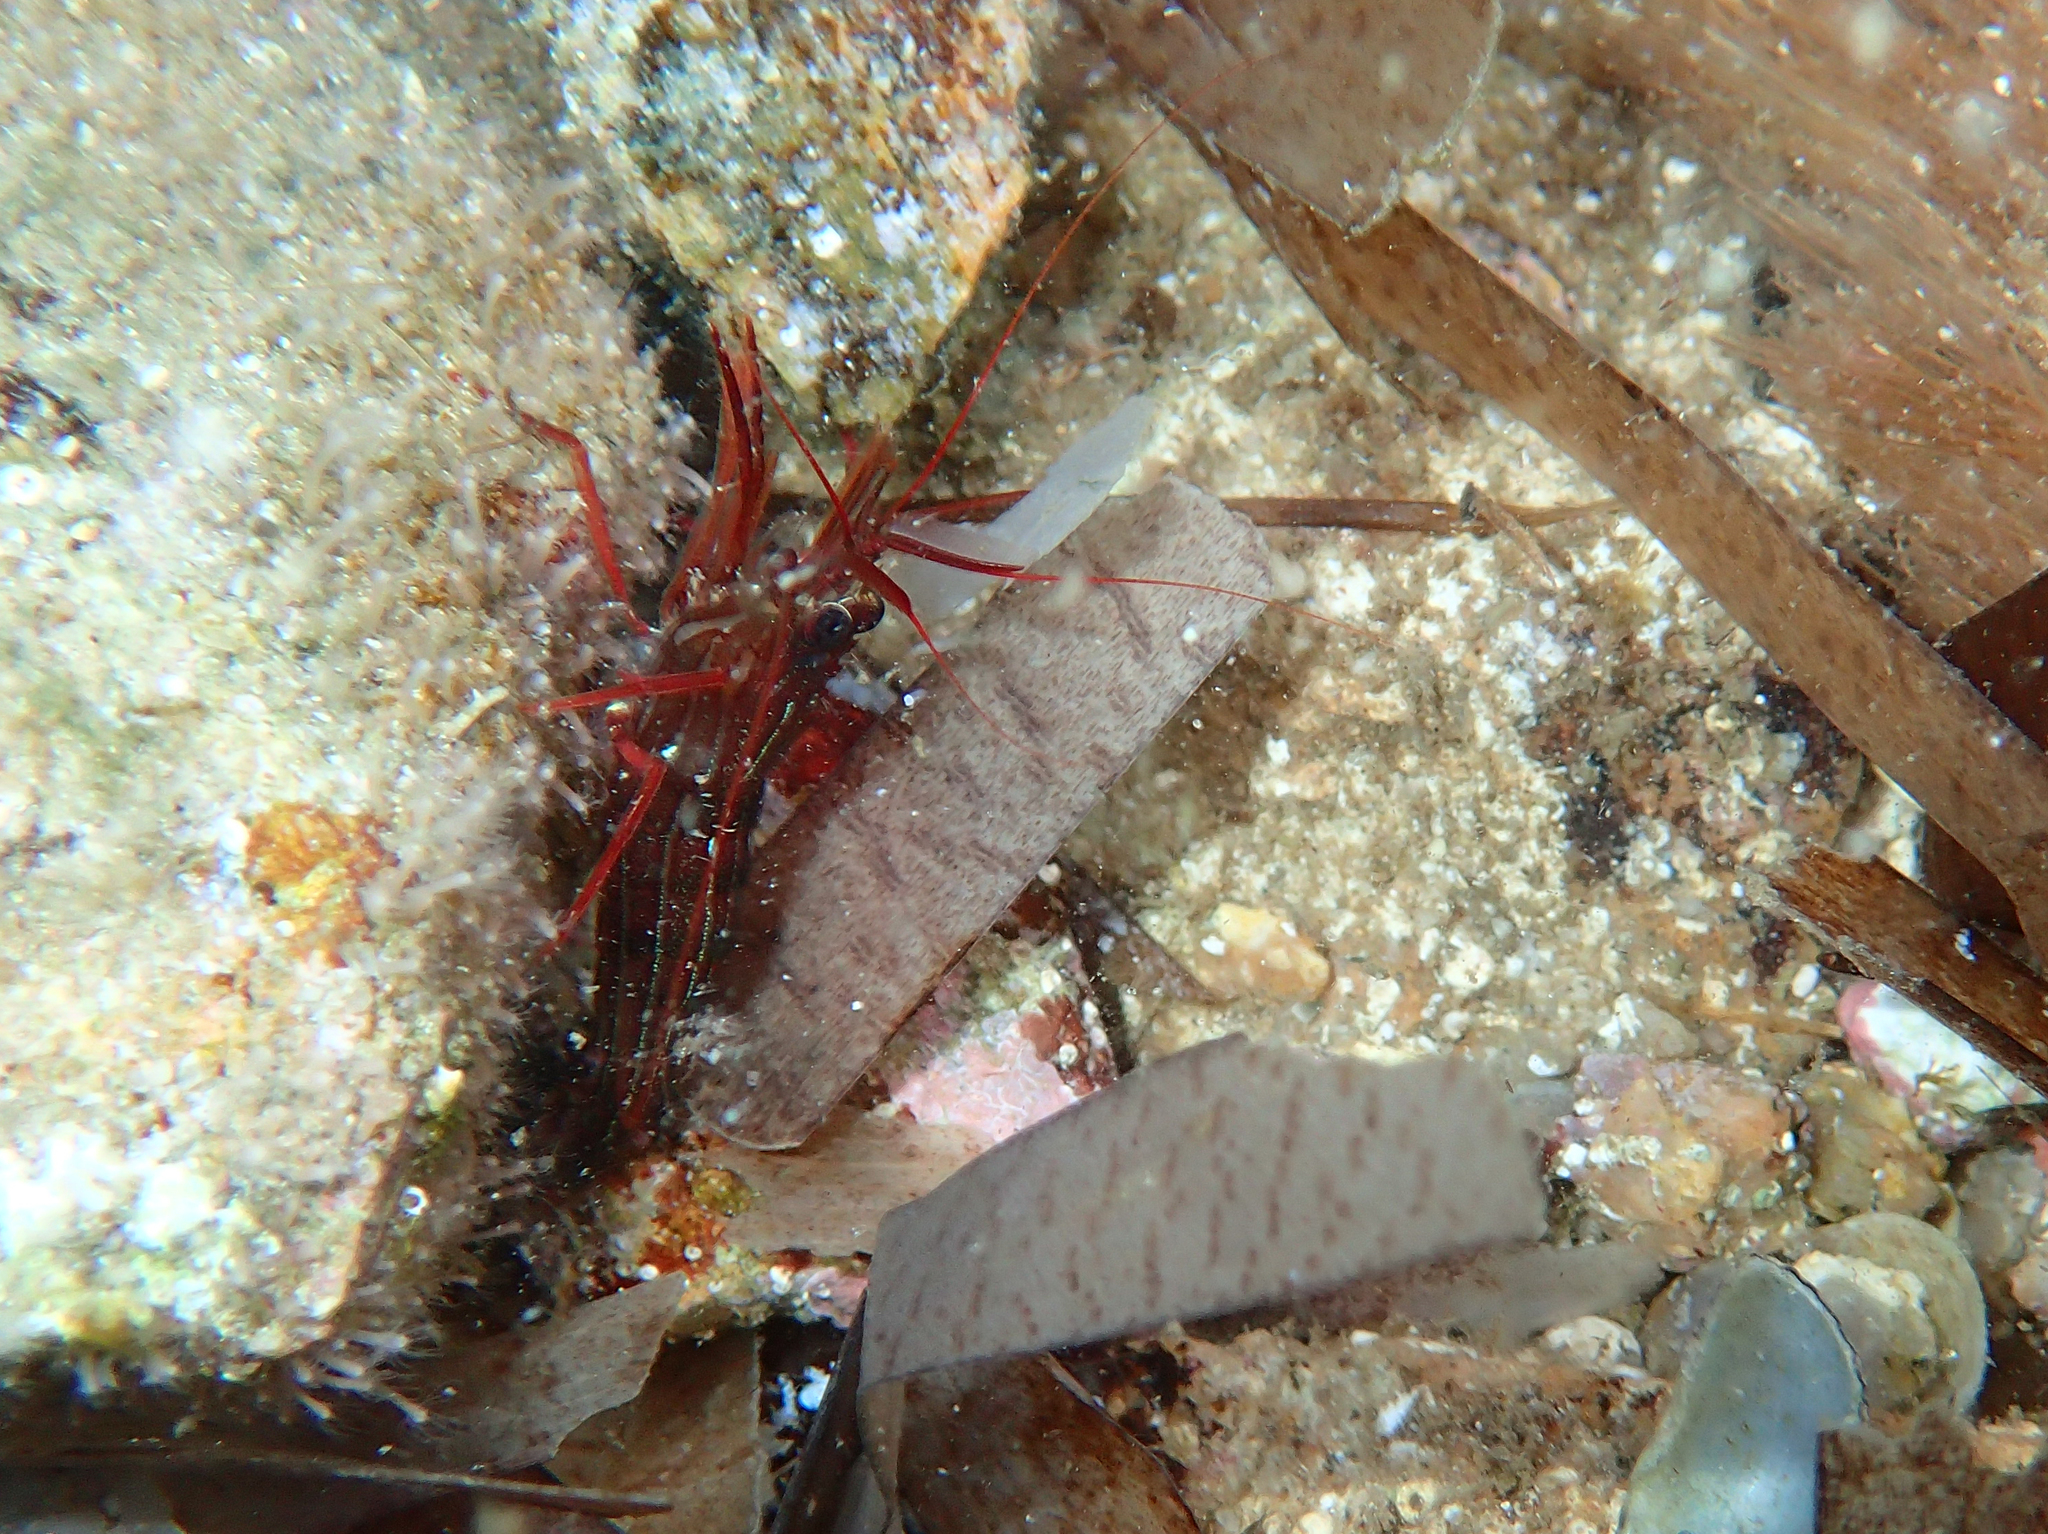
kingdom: Animalia
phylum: Arthropoda
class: Malacostraca
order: Decapoda
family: Lysmatidae
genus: Lysmata
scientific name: Lysmata seticaudata
